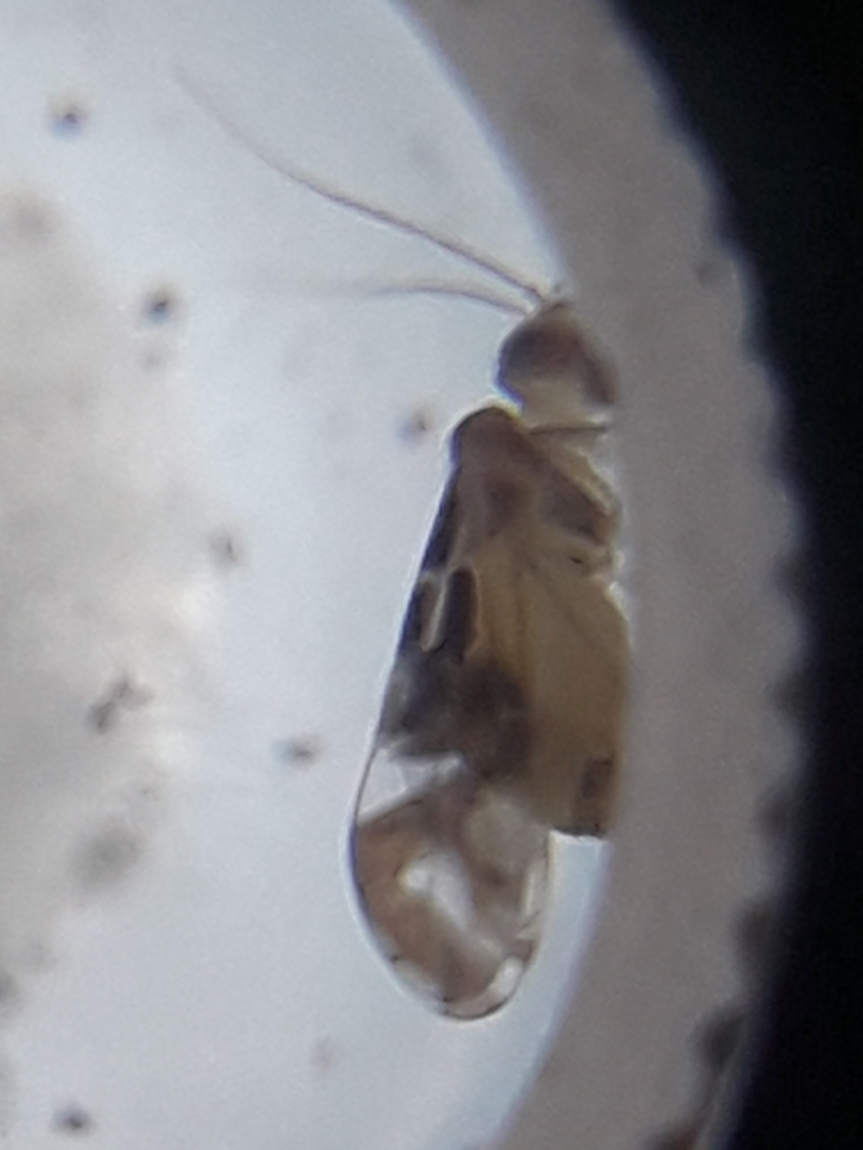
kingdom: Animalia
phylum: Arthropoda
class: Insecta
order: Psocodea
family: Stenopsocidae
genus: Graphopsocus
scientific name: Graphopsocus cruciatus
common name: Lizard bark louse
